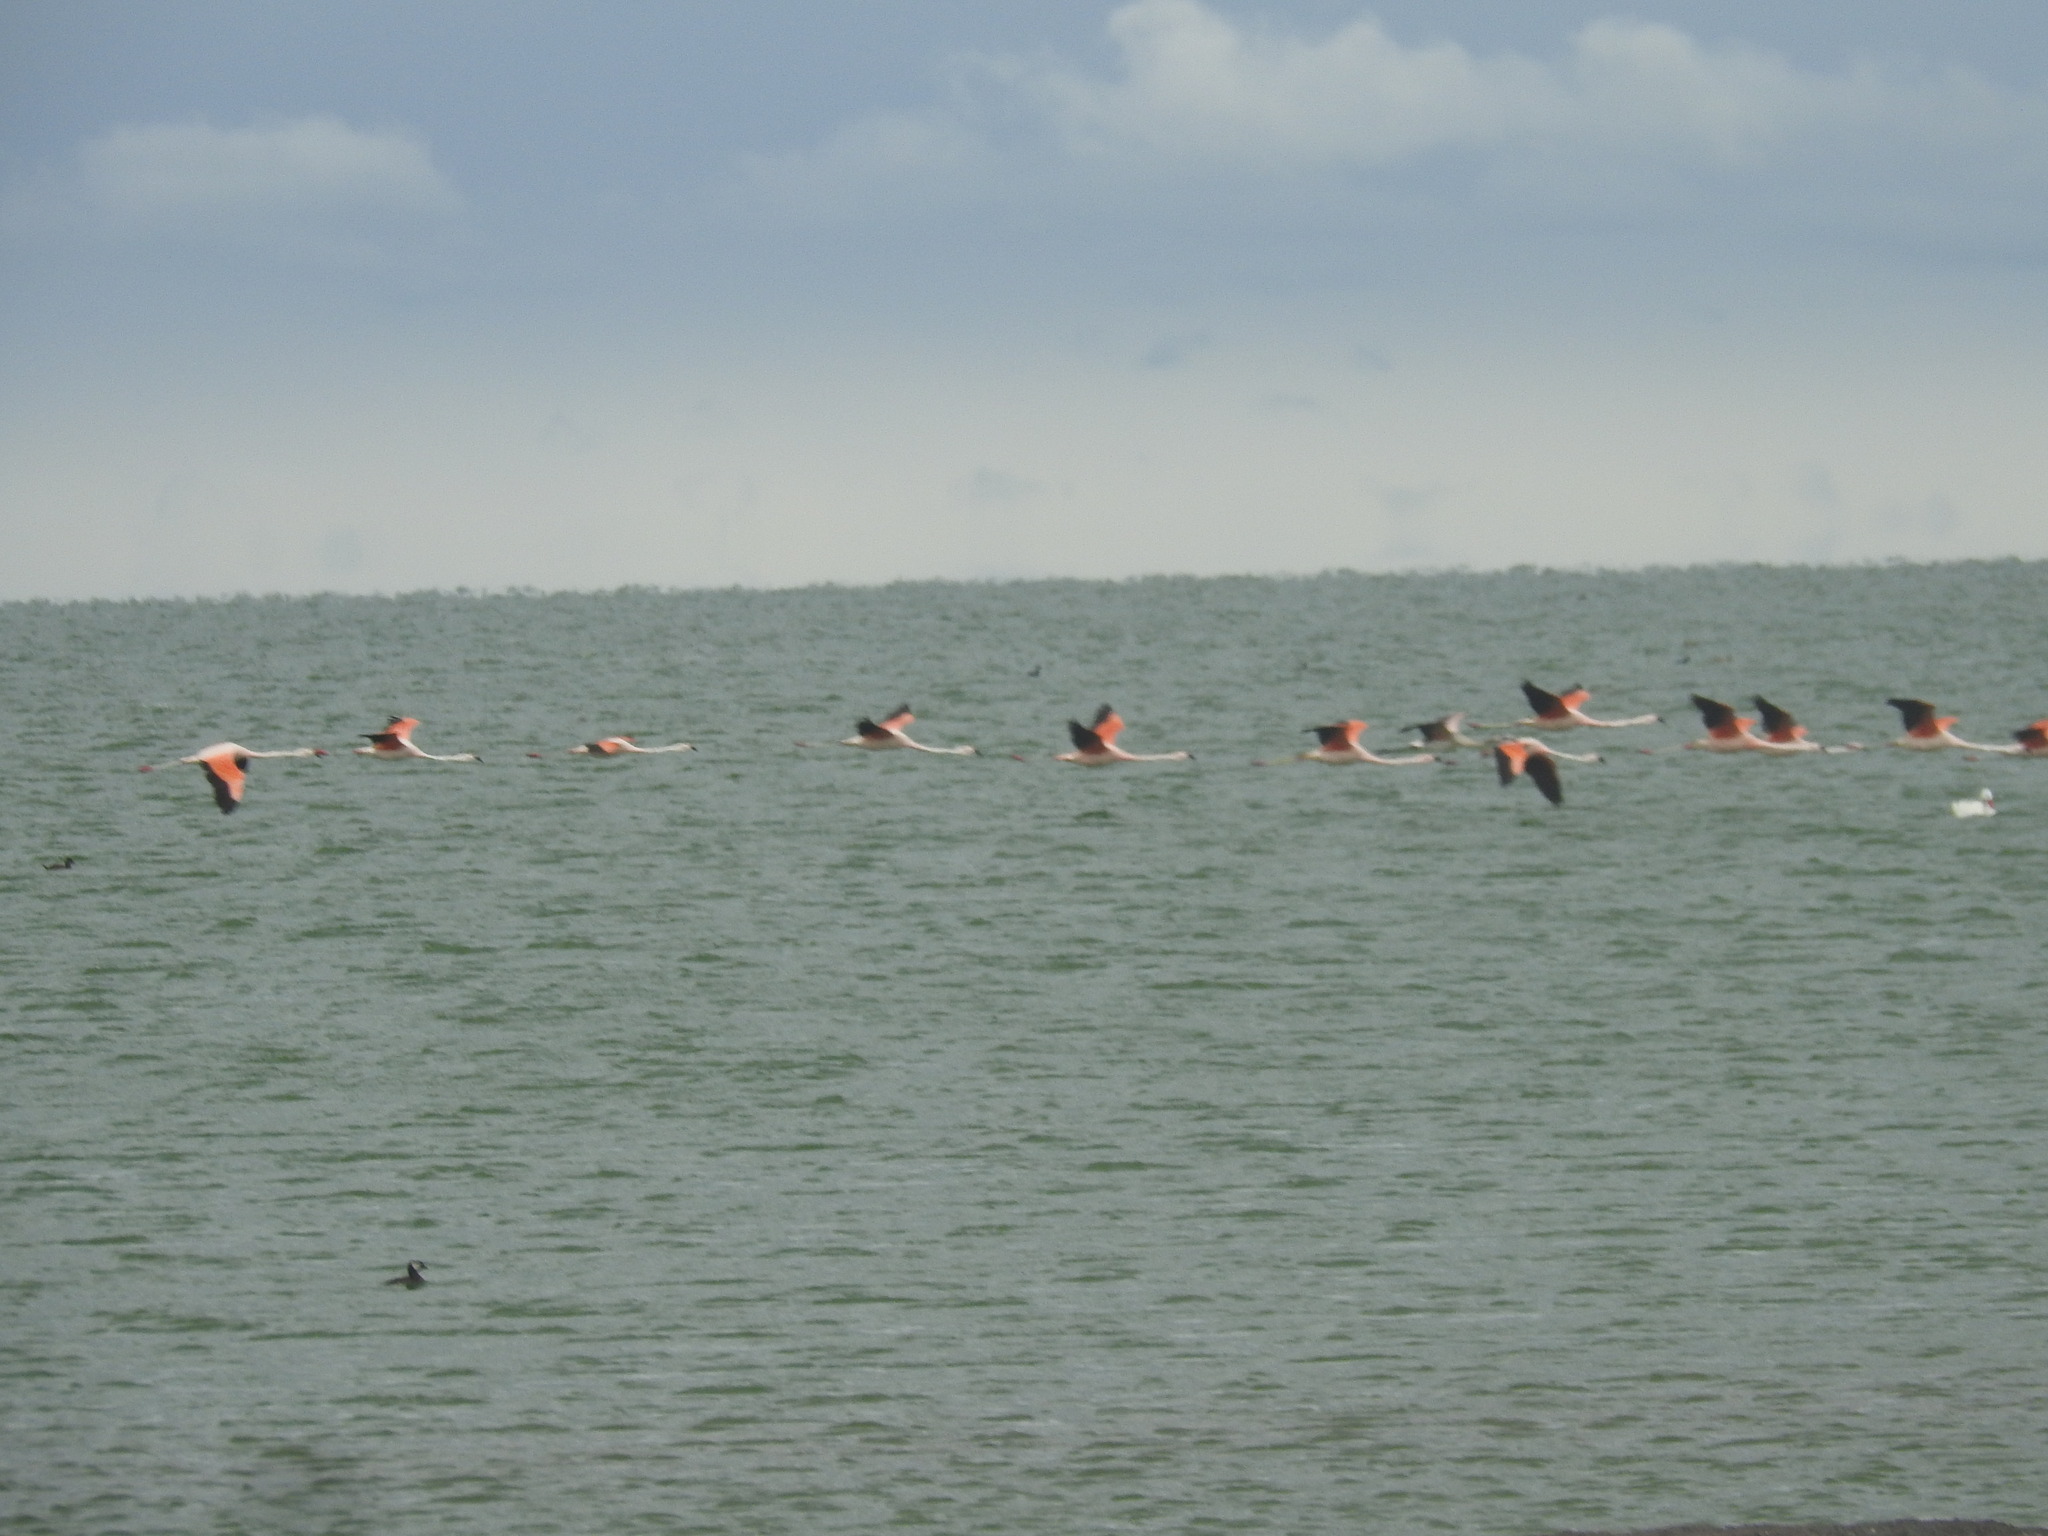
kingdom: Animalia
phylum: Chordata
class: Aves
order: Phoenicopteriformes
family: Phoenicopteridae
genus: Phoenicopterus
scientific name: Phoenicopterus chilensis
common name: Chilean flamingo
